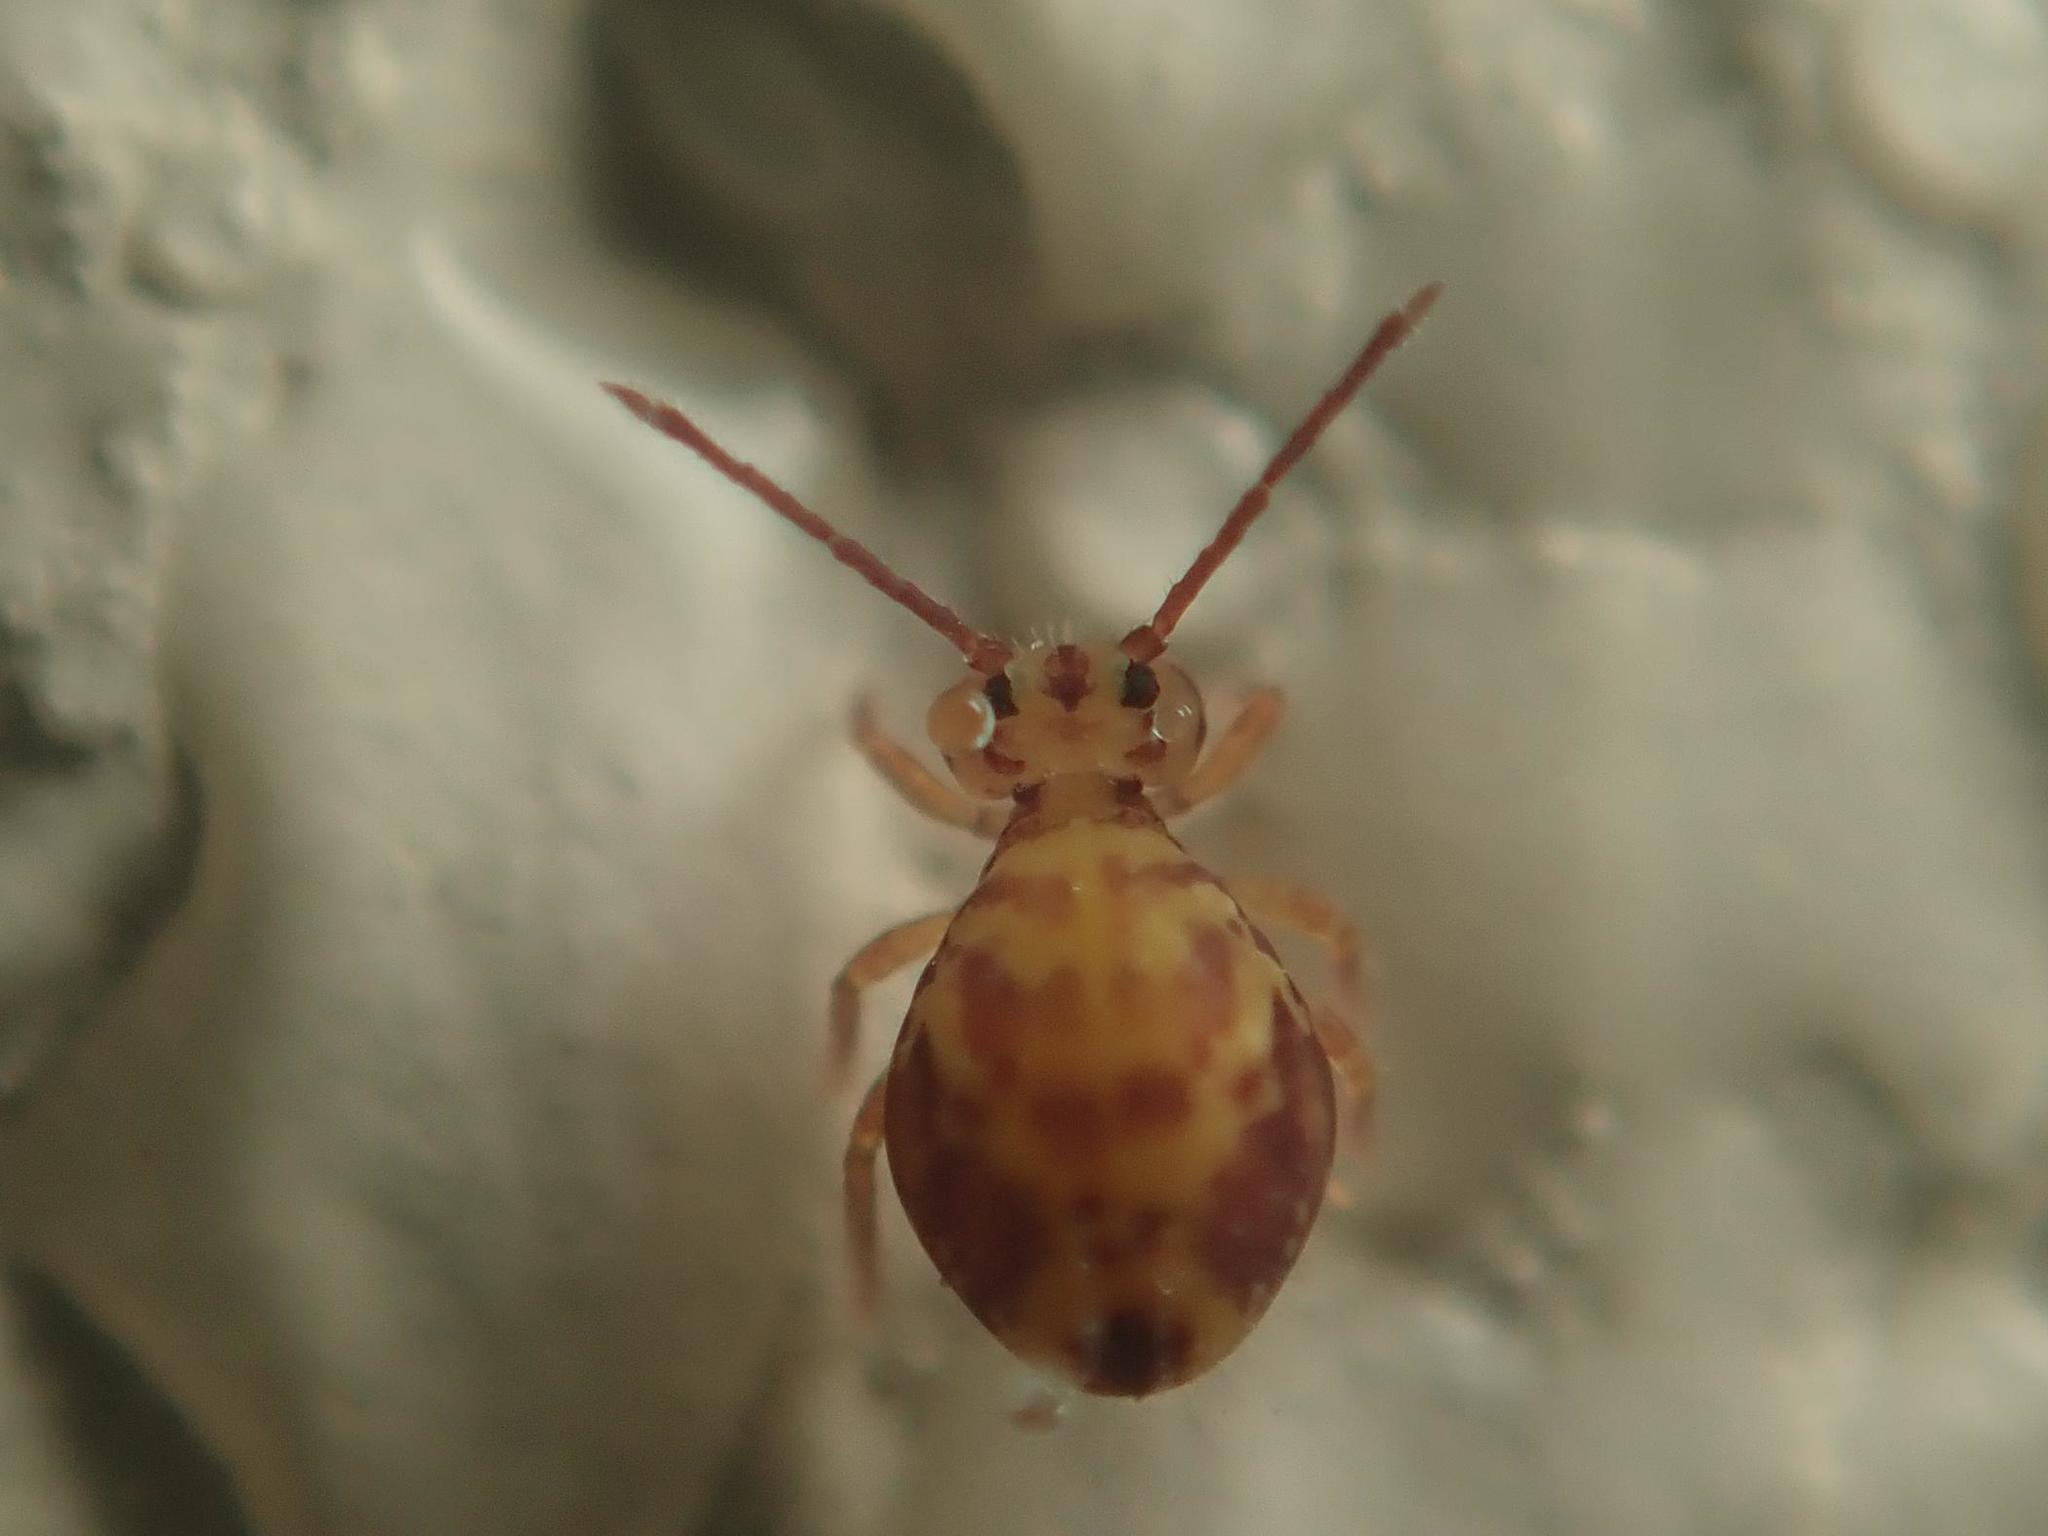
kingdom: Animalia
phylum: Arthropoda
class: Collembola
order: Symphypleona
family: Dicyrtomidae
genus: Dicyrtomina
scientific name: Dicyrtomina ornata
